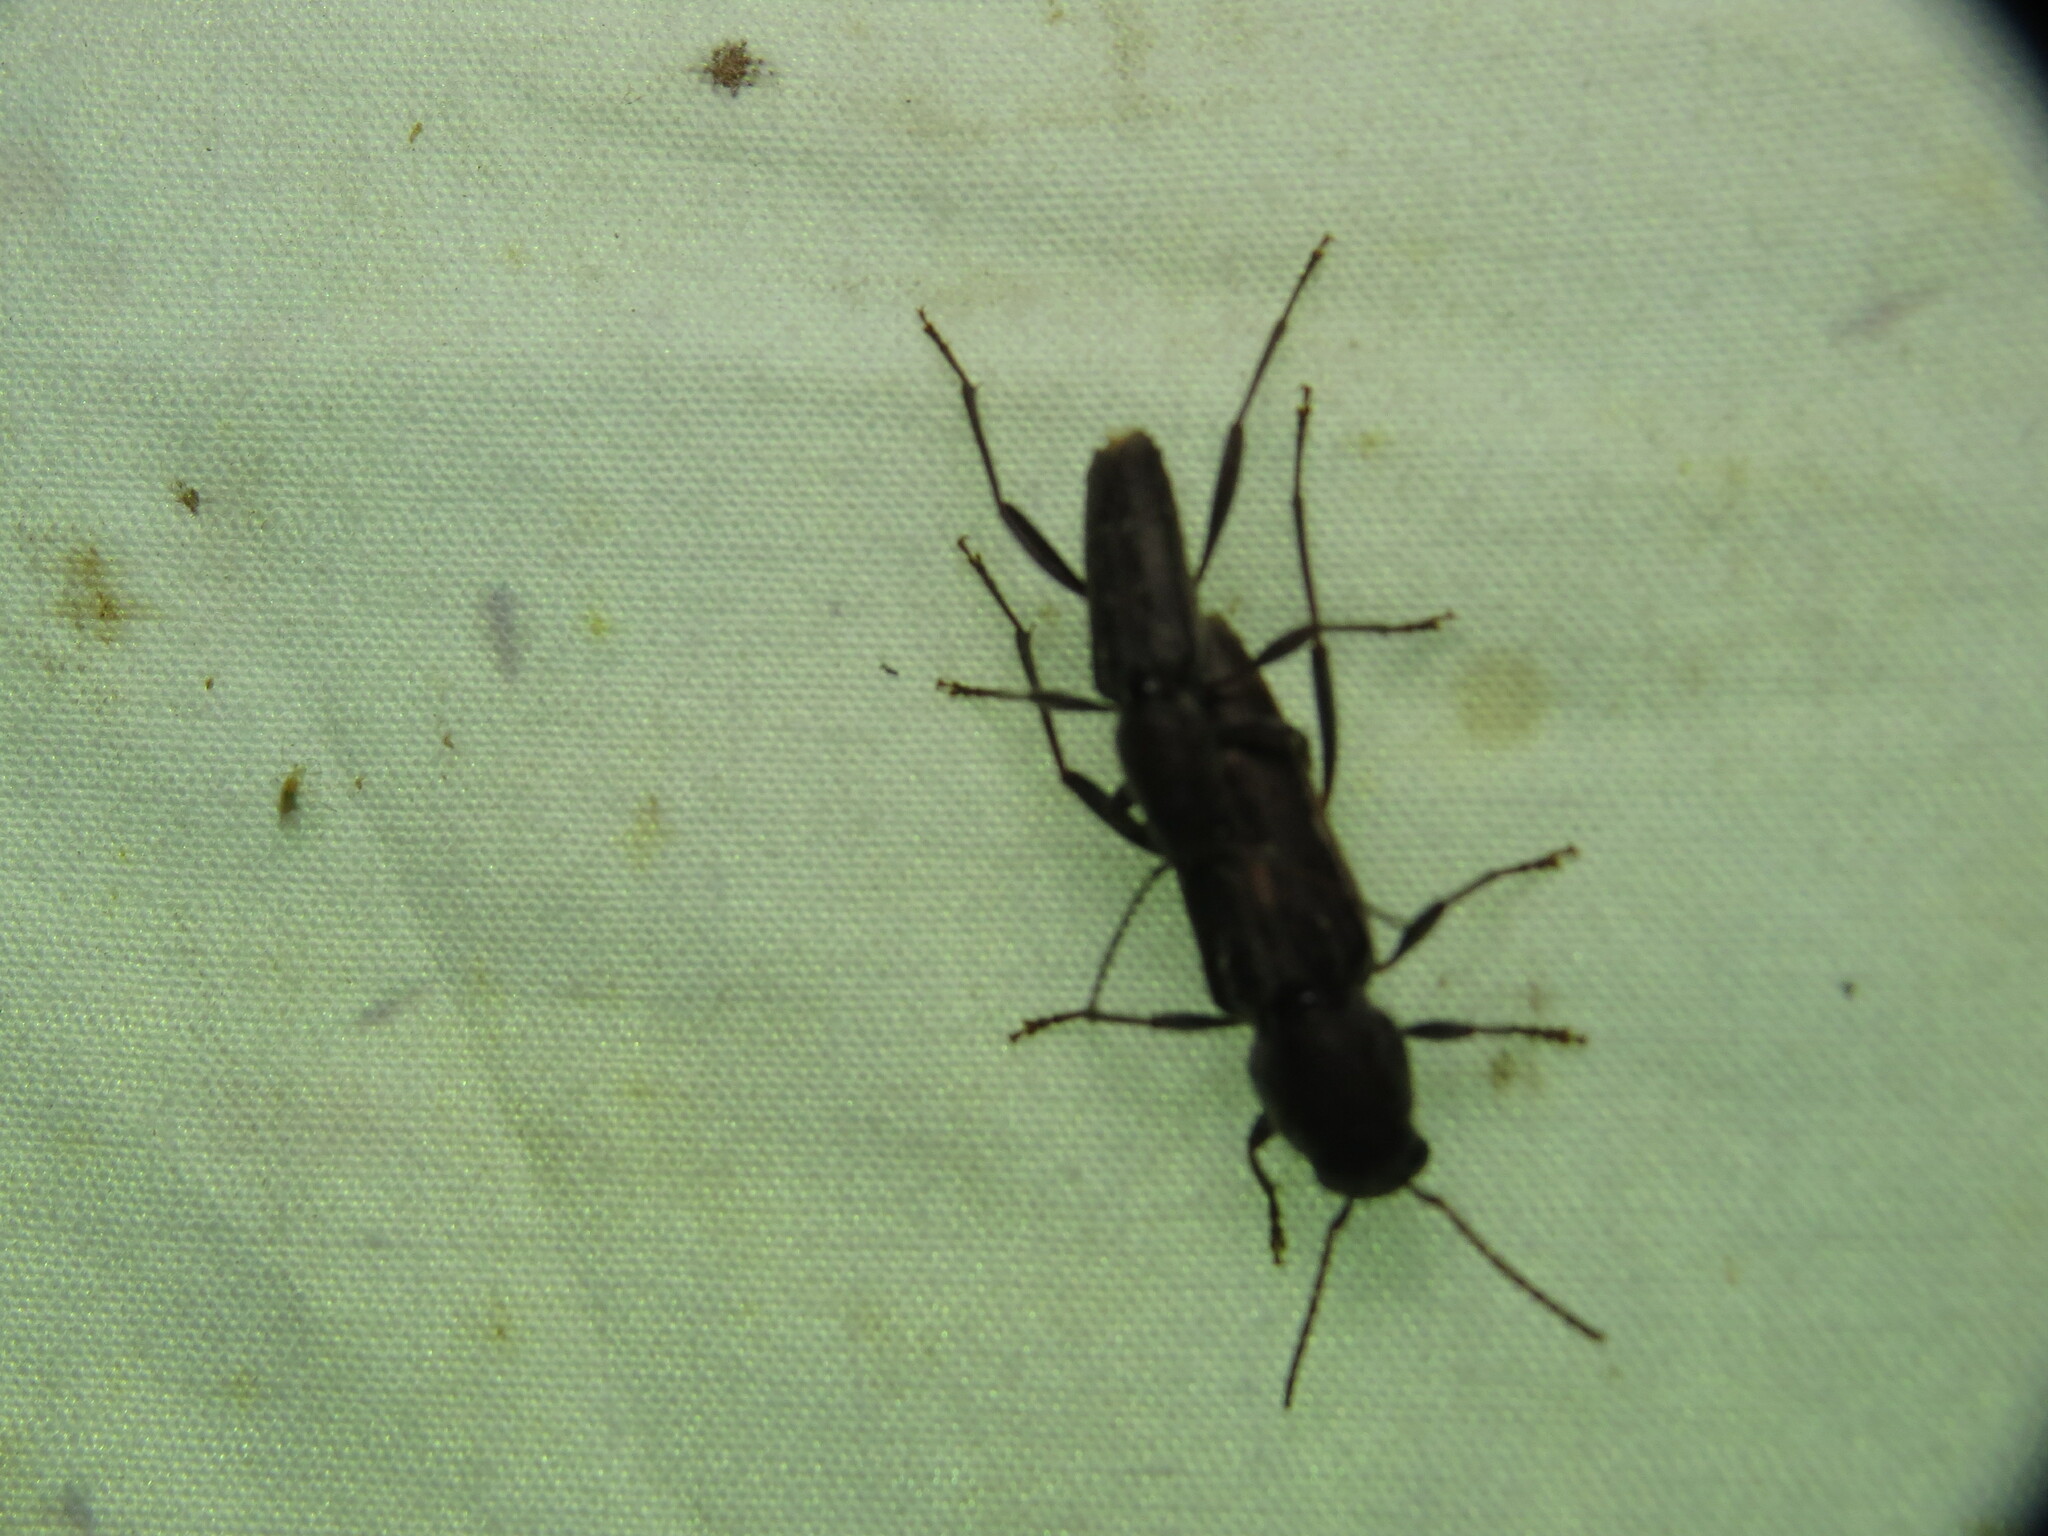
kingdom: Animalia
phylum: Arthropoda
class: Insecta
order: Coleoptera
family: Cerambycidae
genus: Xylotrechus
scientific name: Xylotrechus sagittatus
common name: Arrowhead borer
